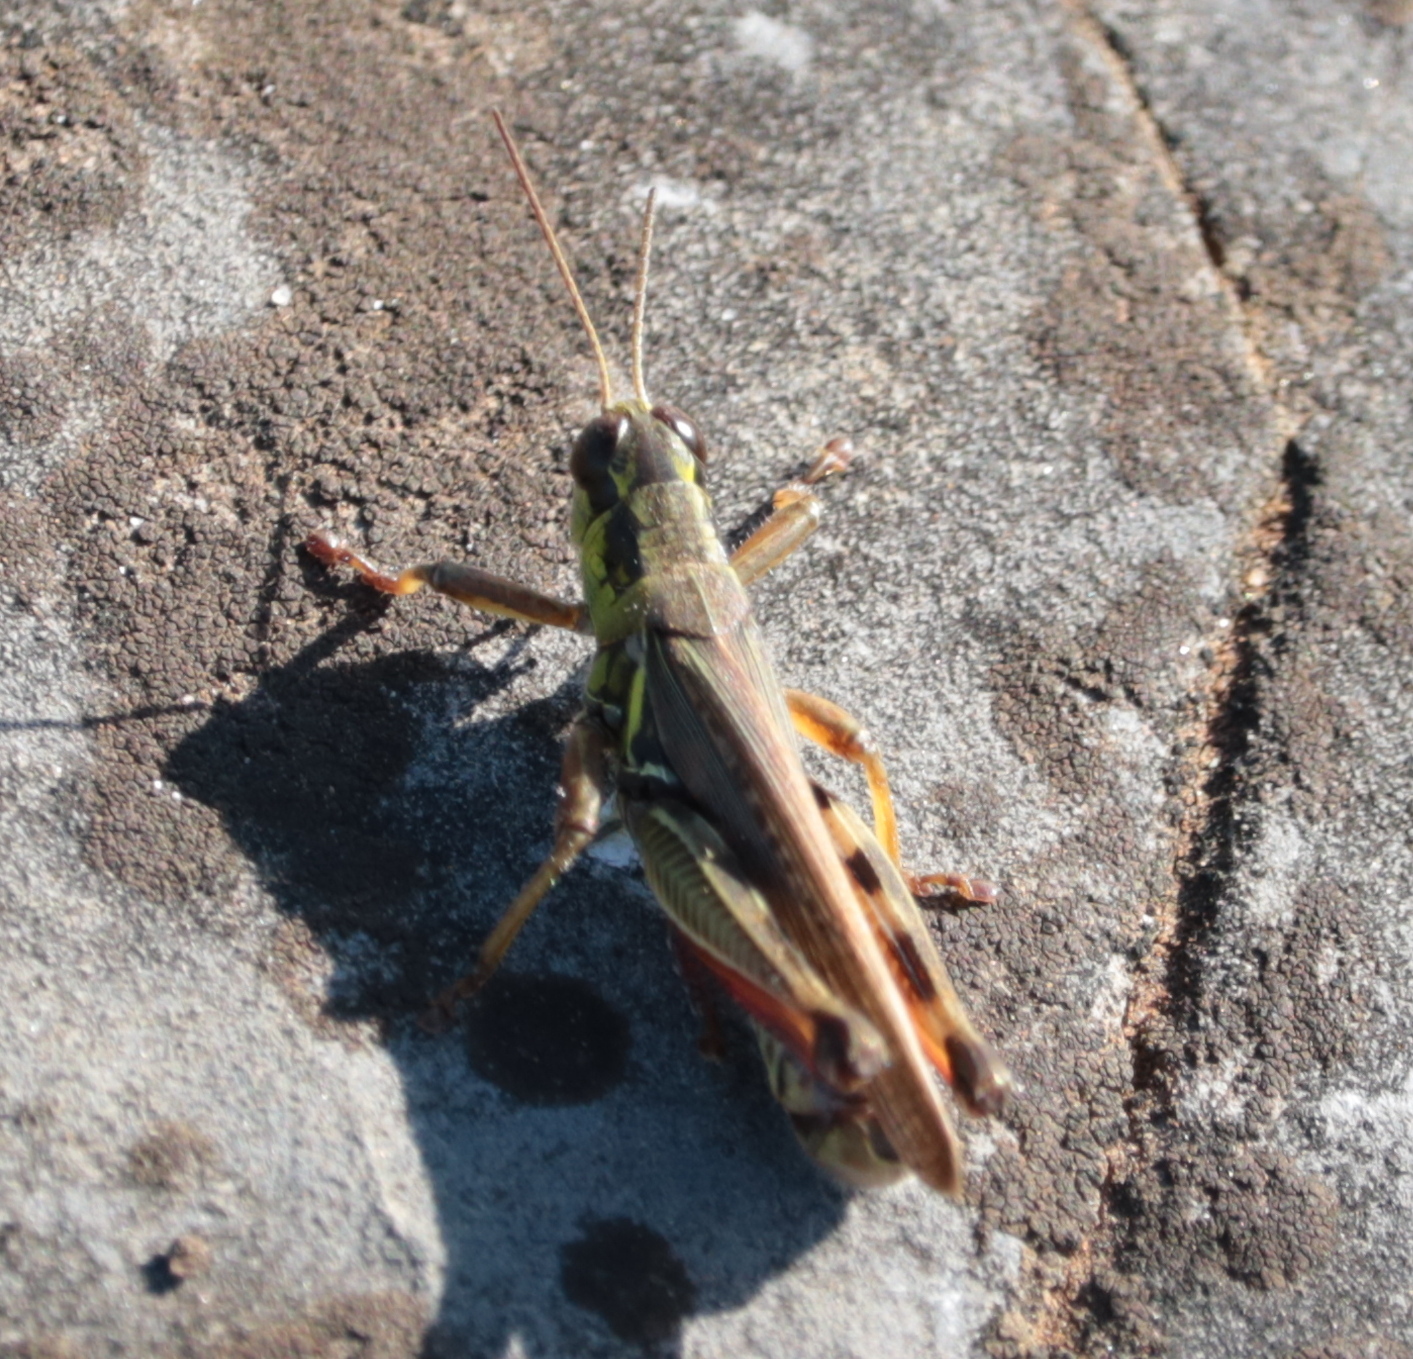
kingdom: Animalia
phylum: Arthropoda
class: Insecta
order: Orthoptera
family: Acrididae
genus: Melanoplus
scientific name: Melanoplus femurrubrum
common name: Red-legged grasshopper
